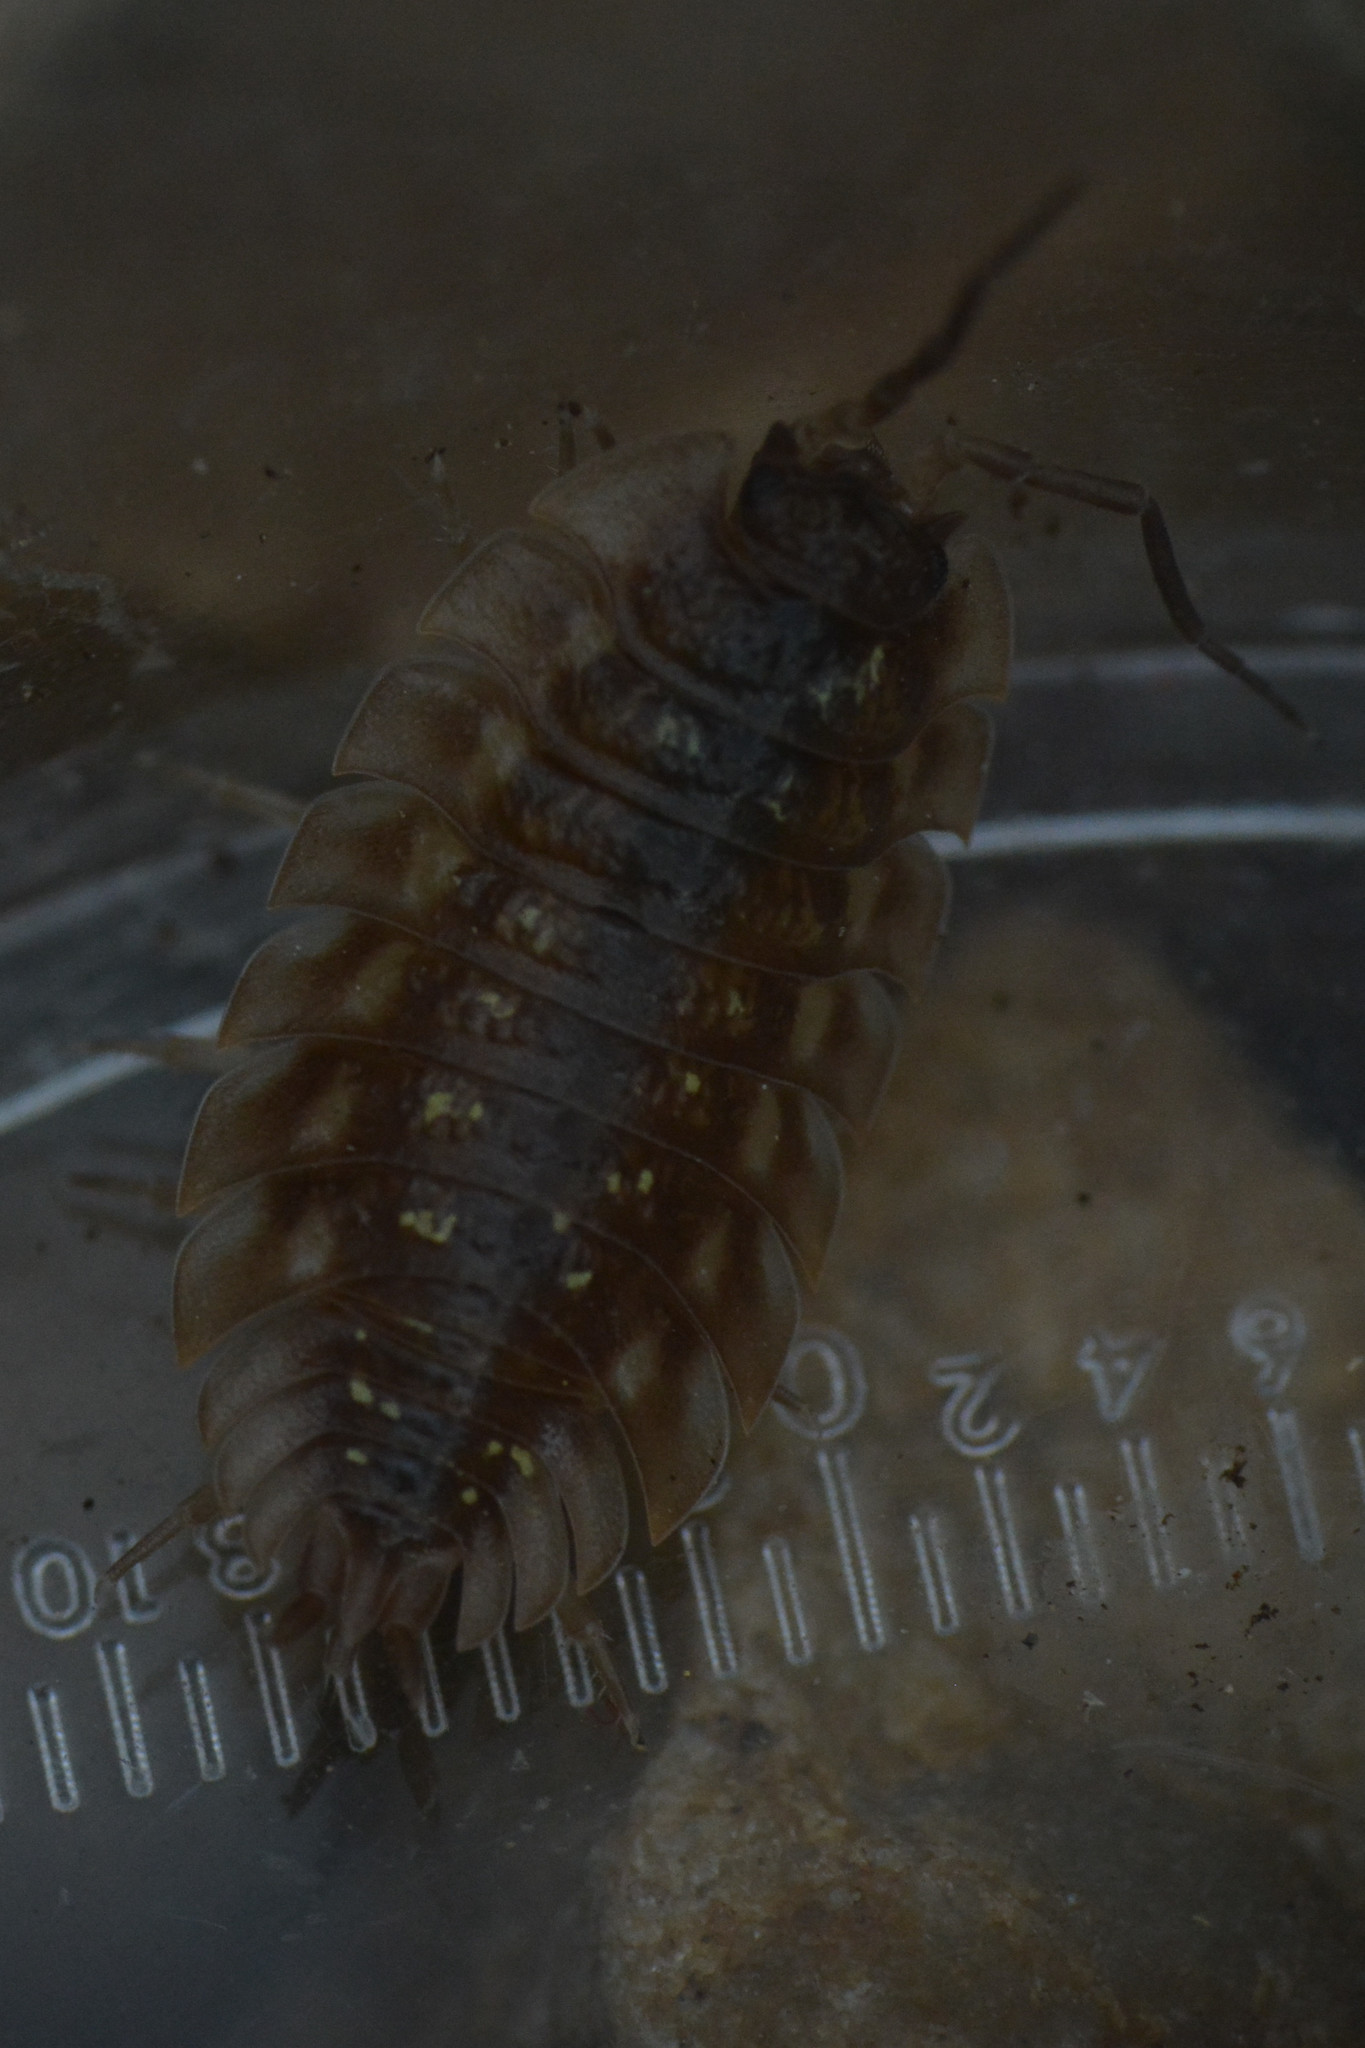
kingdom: Animalia
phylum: Arthropoda
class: Malacostraca
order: Isopoda
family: Oniscidae
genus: Oniscus
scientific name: Oniscus asellus
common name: Common shiny woodlouse
